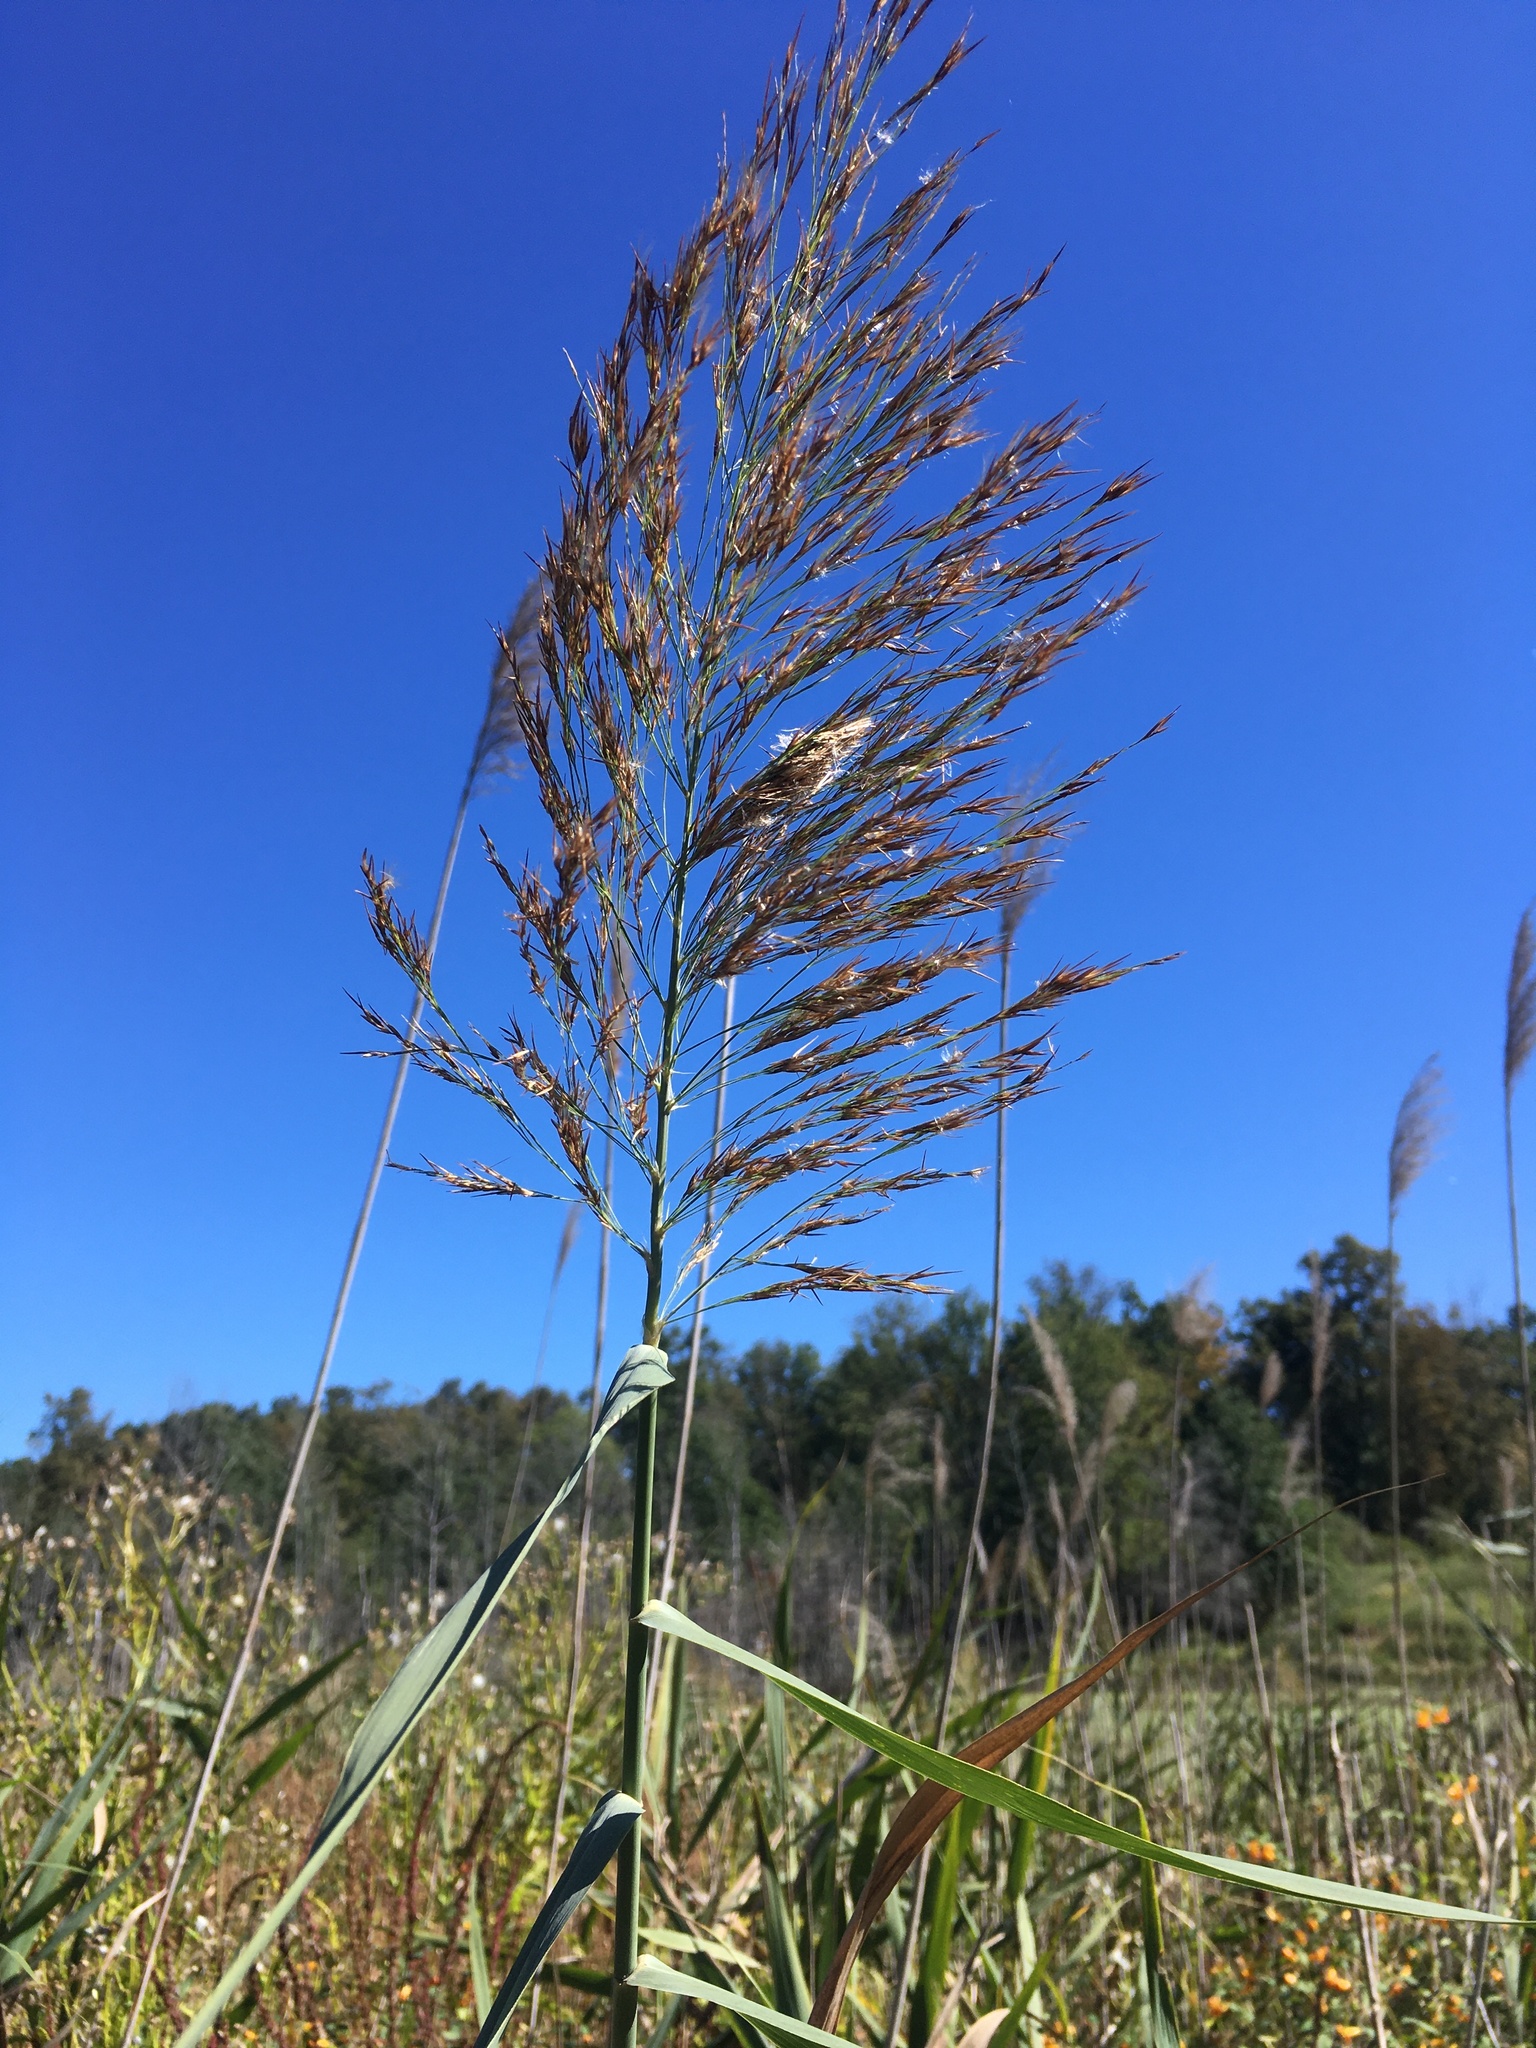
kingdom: Plantae
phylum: Tracheophyta
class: Liliopsida
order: Poales
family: Poaceae
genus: Phragmites
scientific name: Phragmites australis
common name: Common reed
